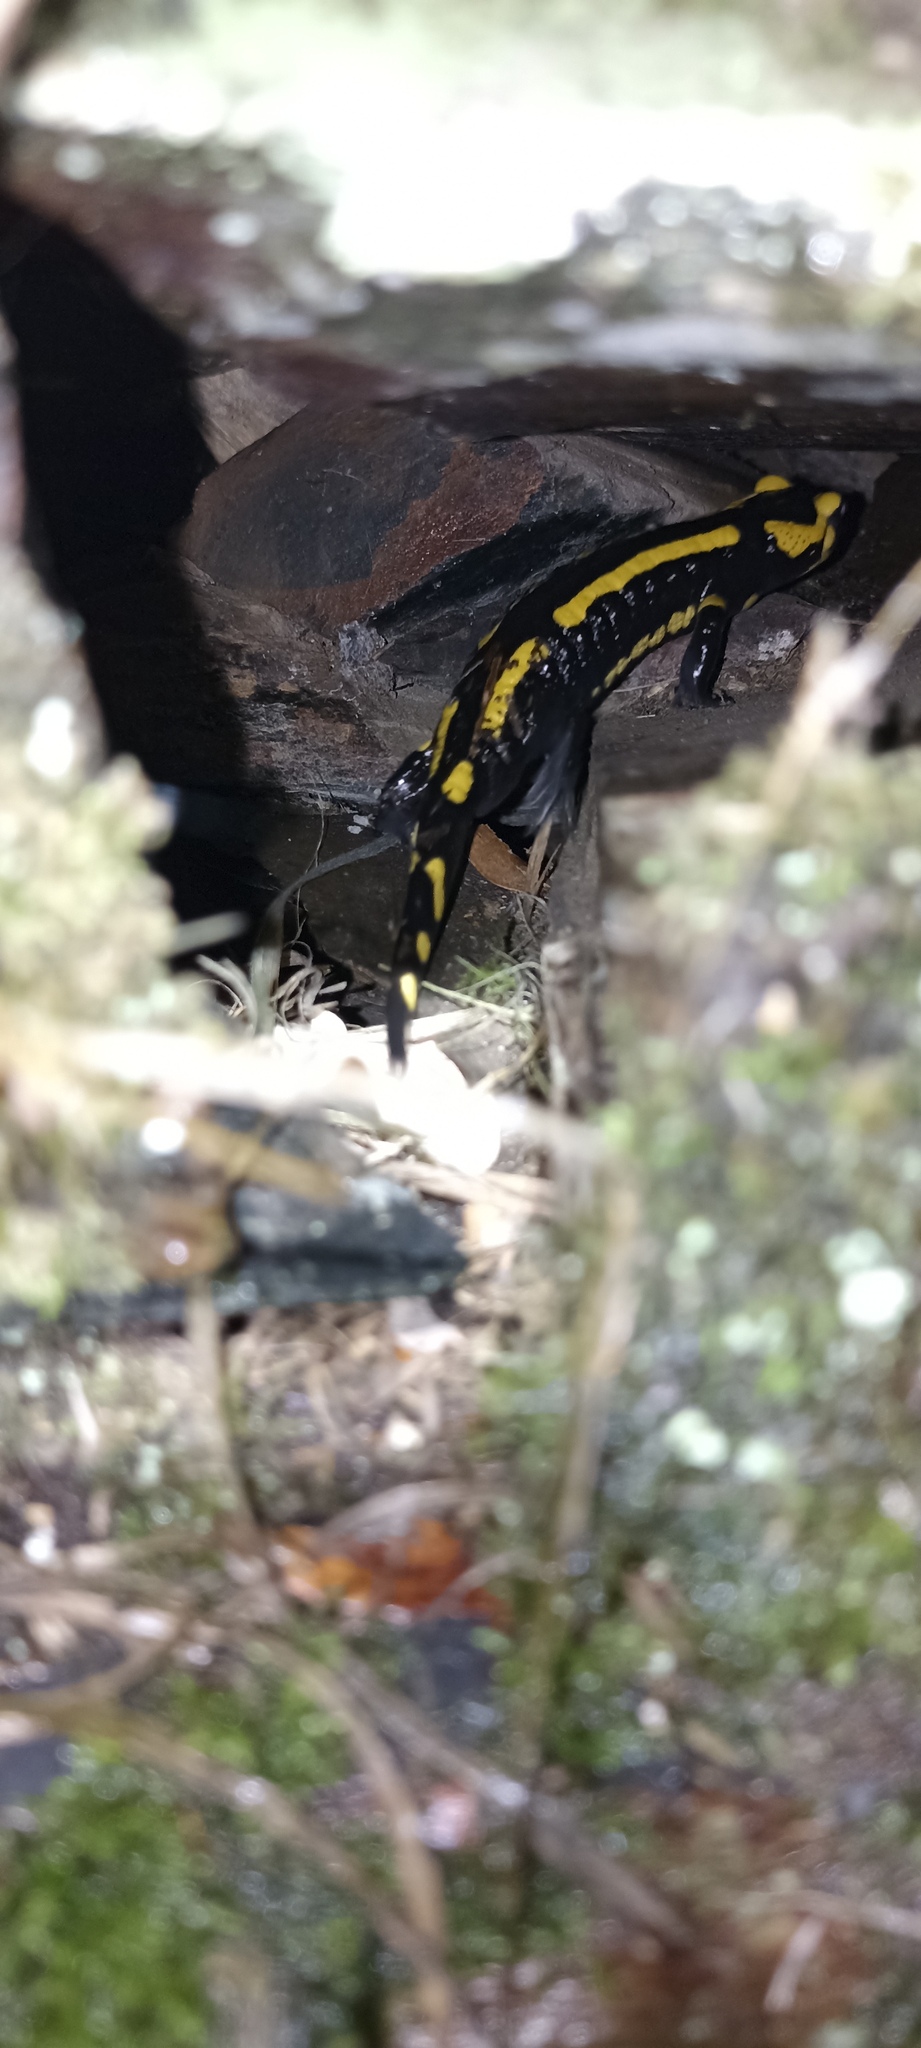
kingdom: Animalia
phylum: Chordata
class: Amphibia
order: Caudata
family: Salamandridae
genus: Salamandra
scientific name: Salamandra salamandra
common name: Fire salamander
